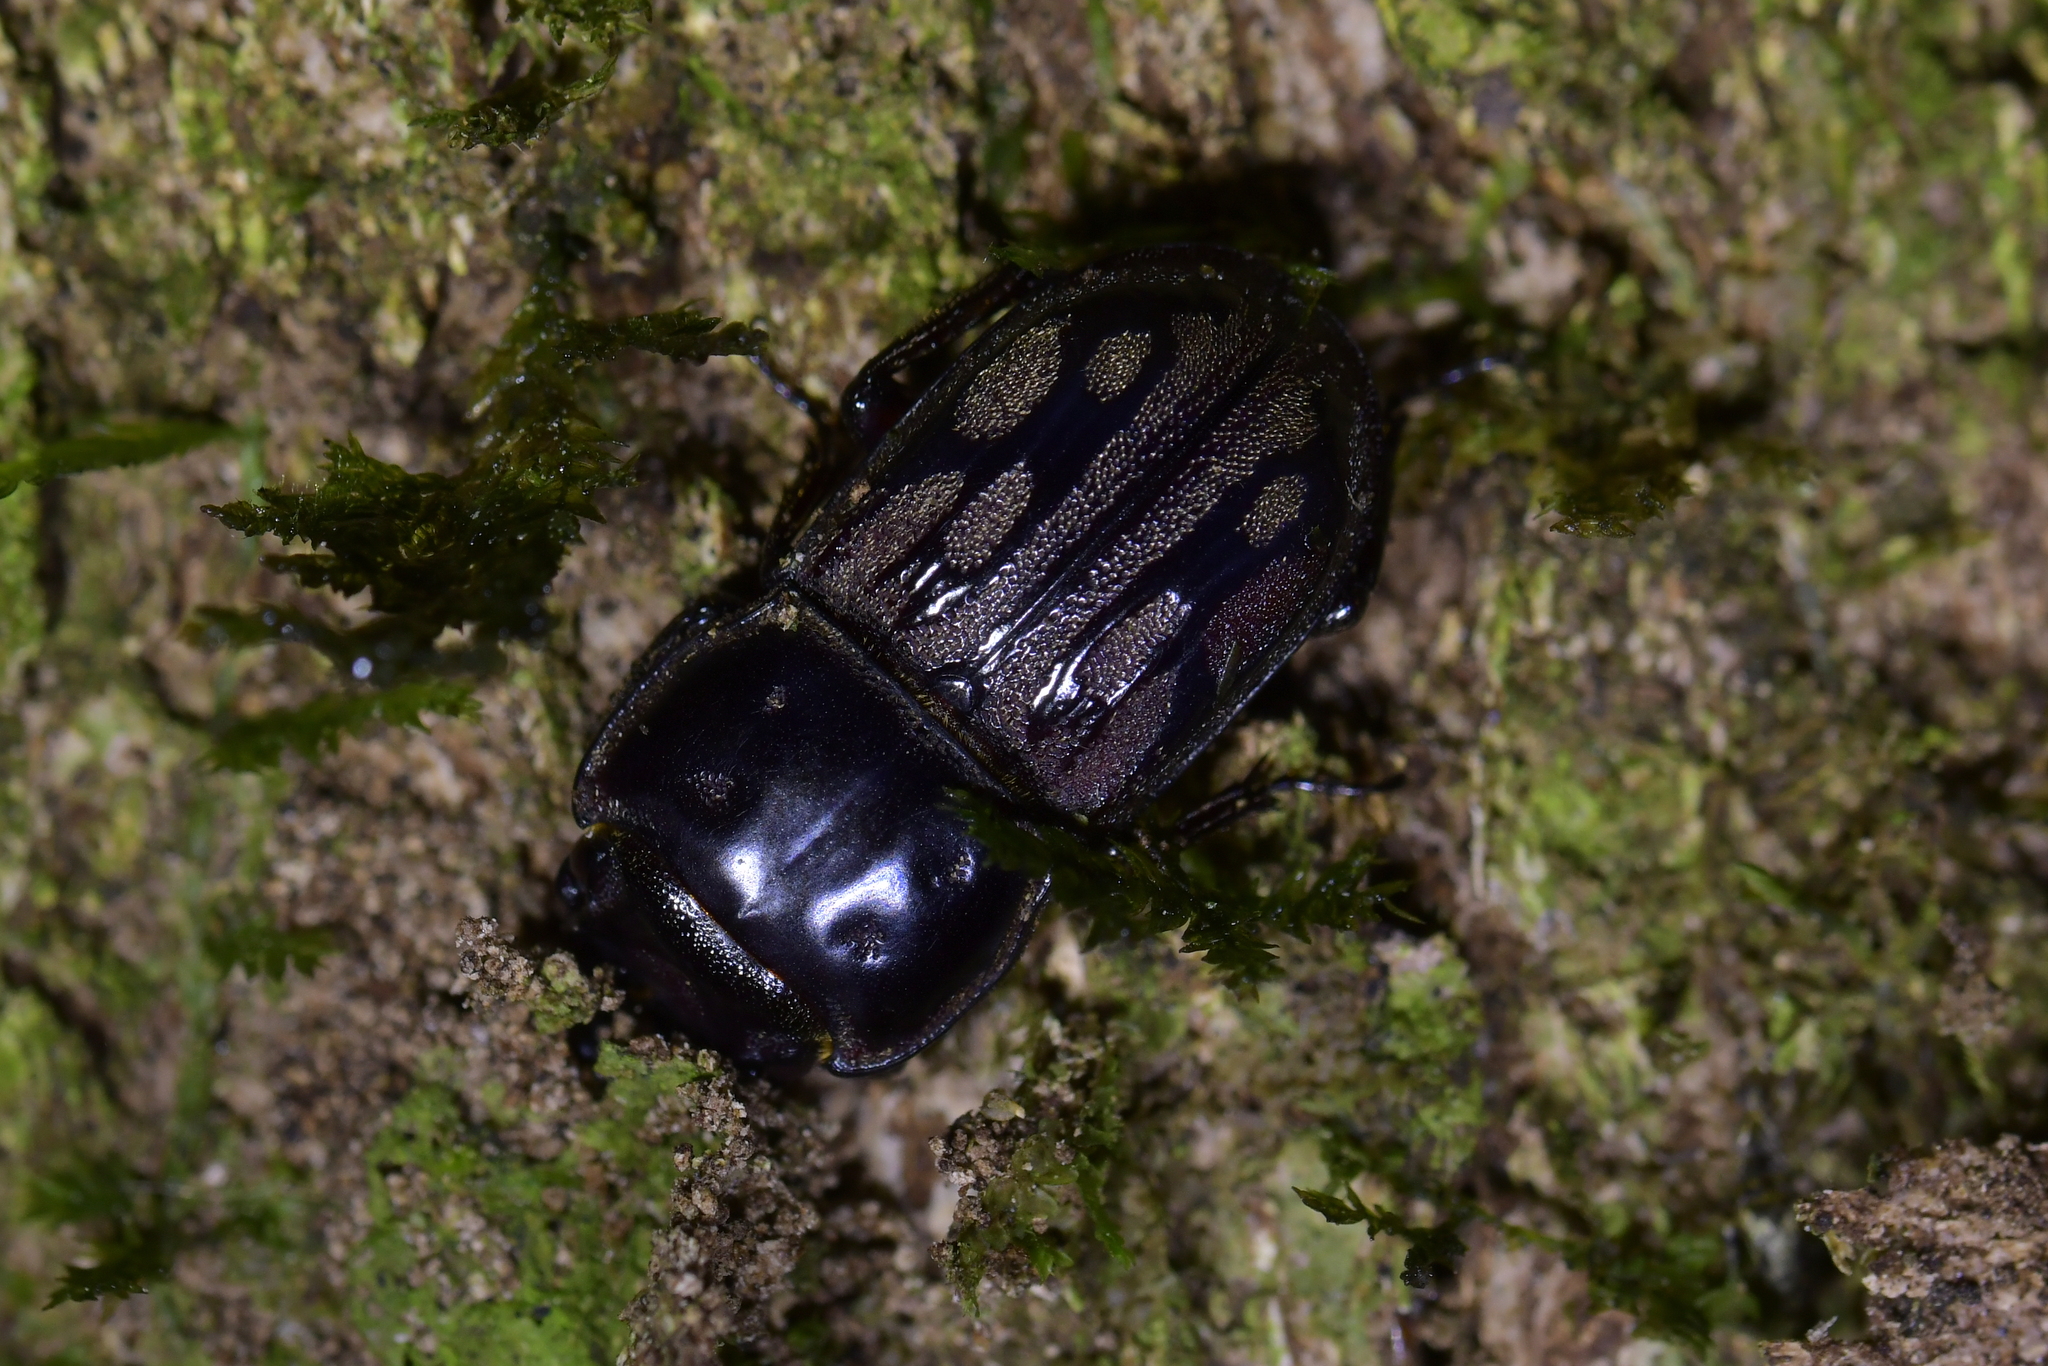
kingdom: Animalia
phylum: Arthropoda
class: Insecta
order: Coleoptera
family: Lucanidae
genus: Paralissotes
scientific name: Paralissotes reticulatus
